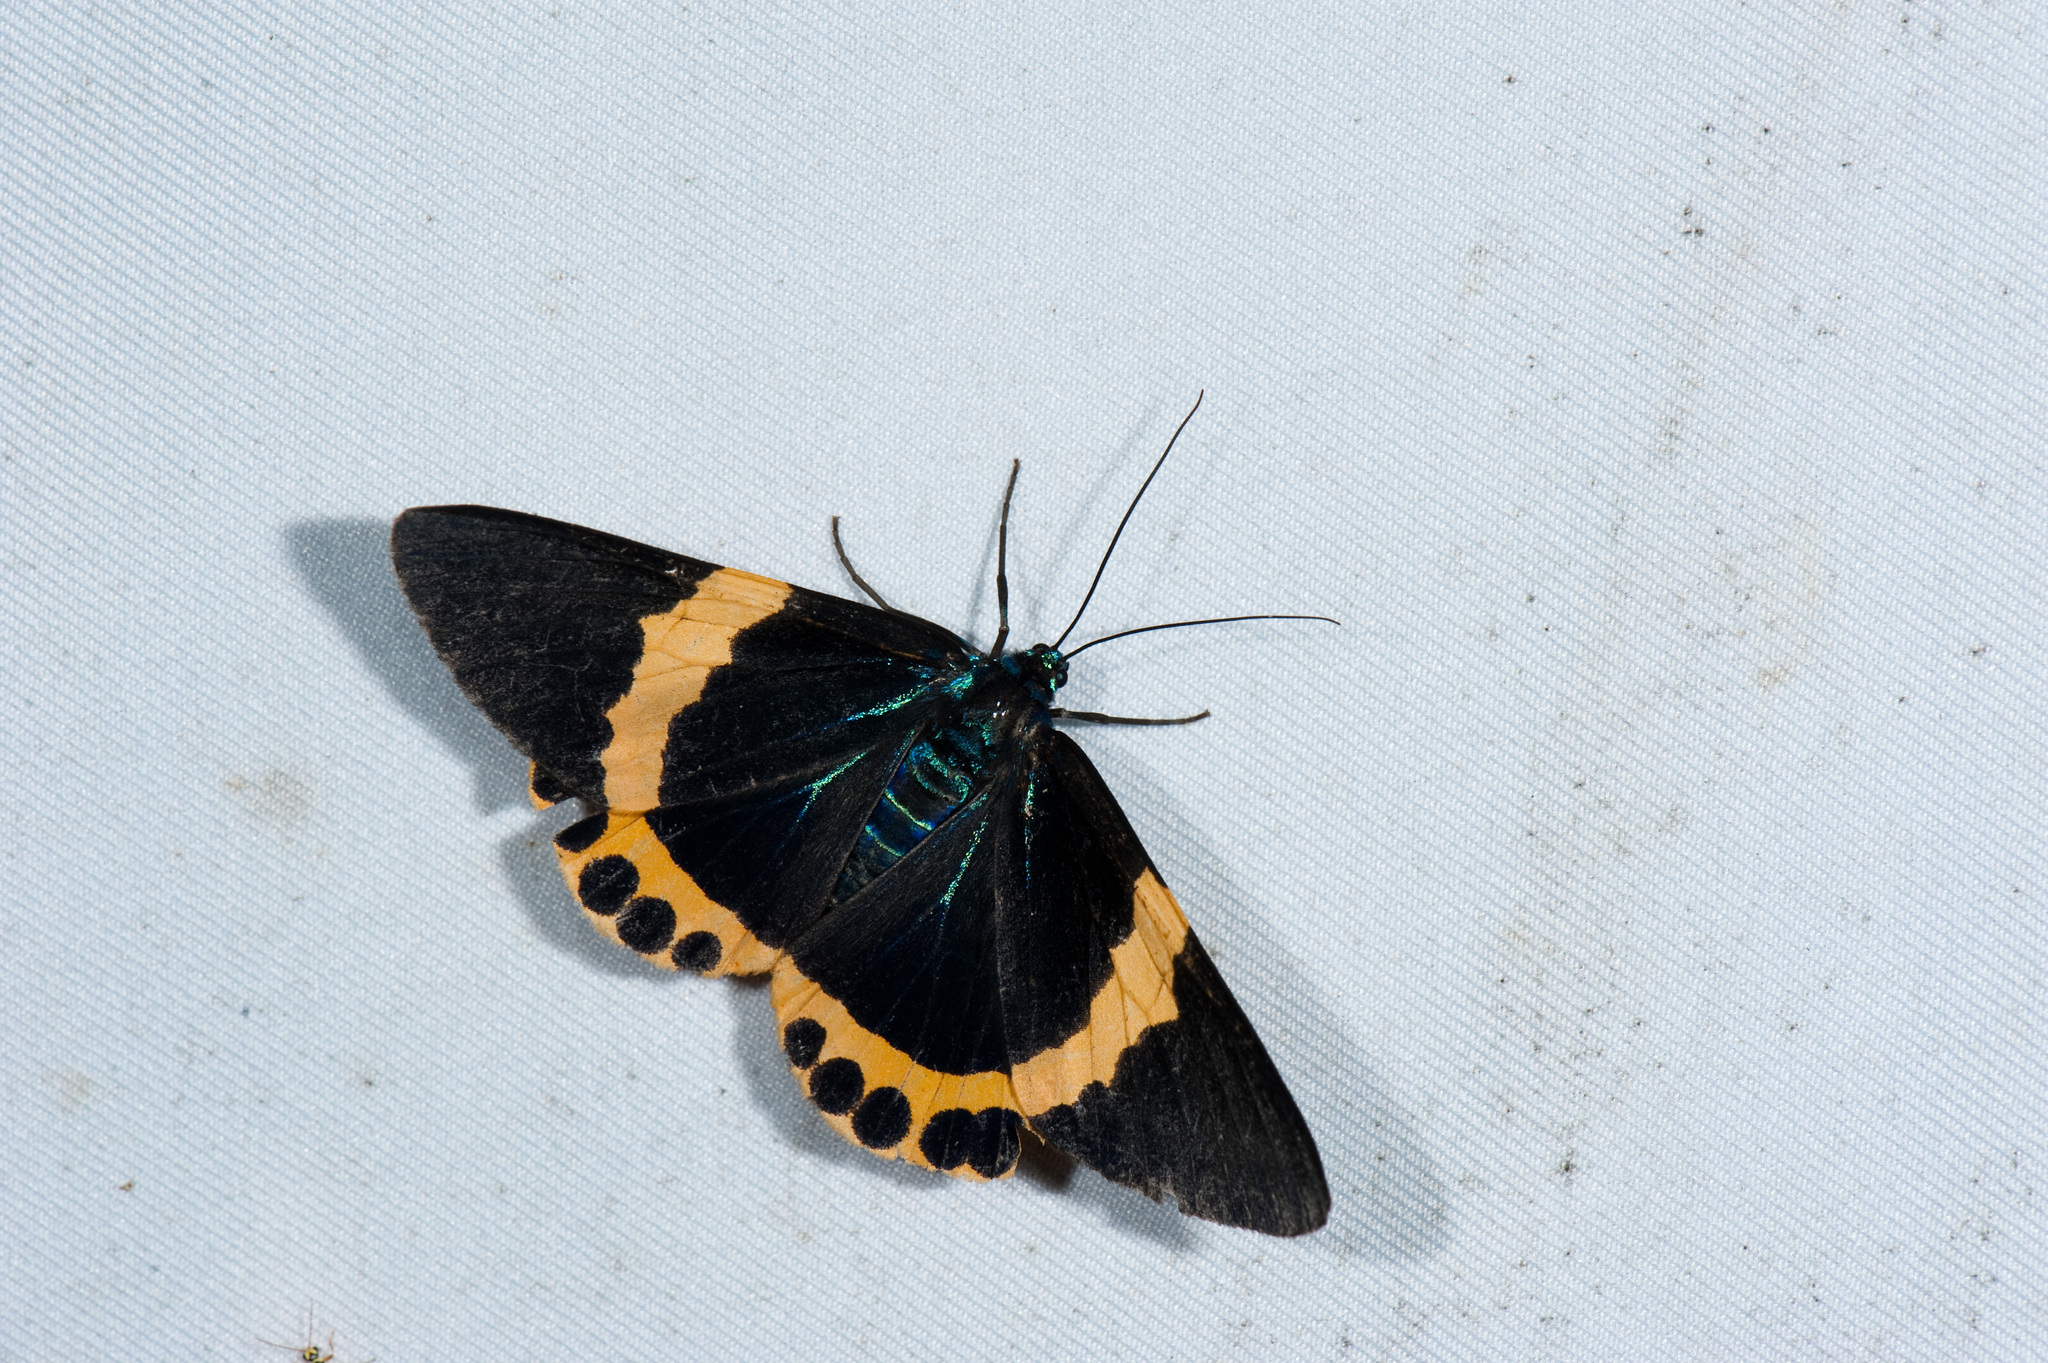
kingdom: Animalia
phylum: Arthropoda
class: Insecta
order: Lepidoptera
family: Geometridae
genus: Milionia
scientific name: Milionia basalis
